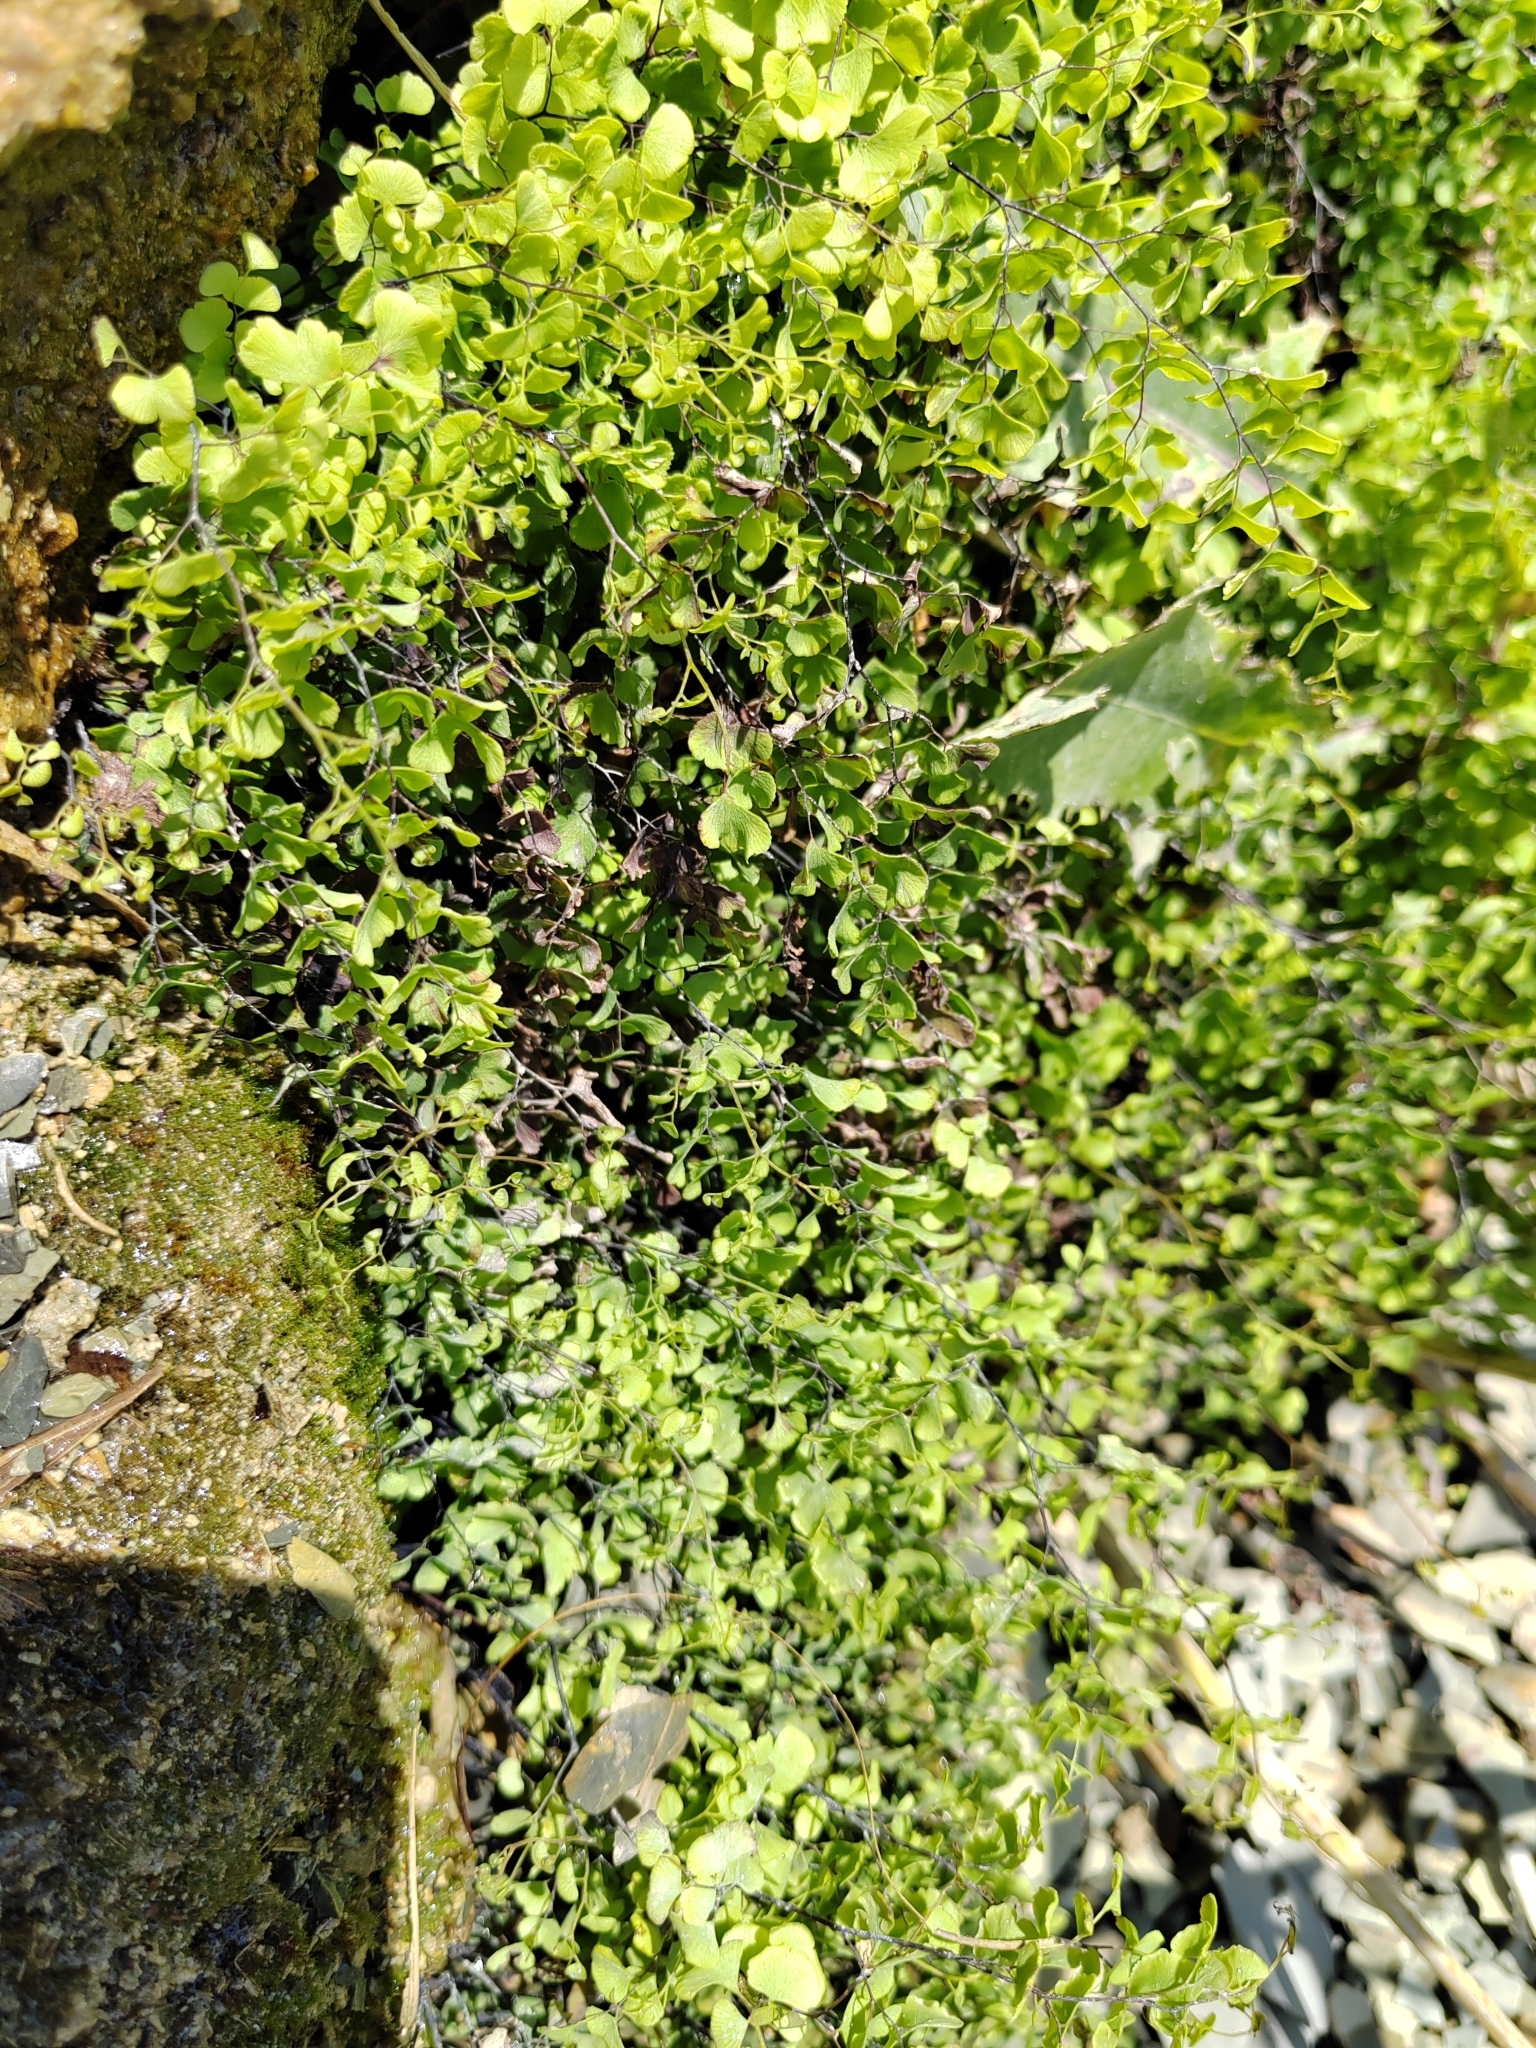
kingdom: Plantae
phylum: Tracheophyta
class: Polypodiopsida
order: Polypodiales
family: Pteridaceae
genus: Adiantum
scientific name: Adiantum capillus-veneris
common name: Maidenhair fern
